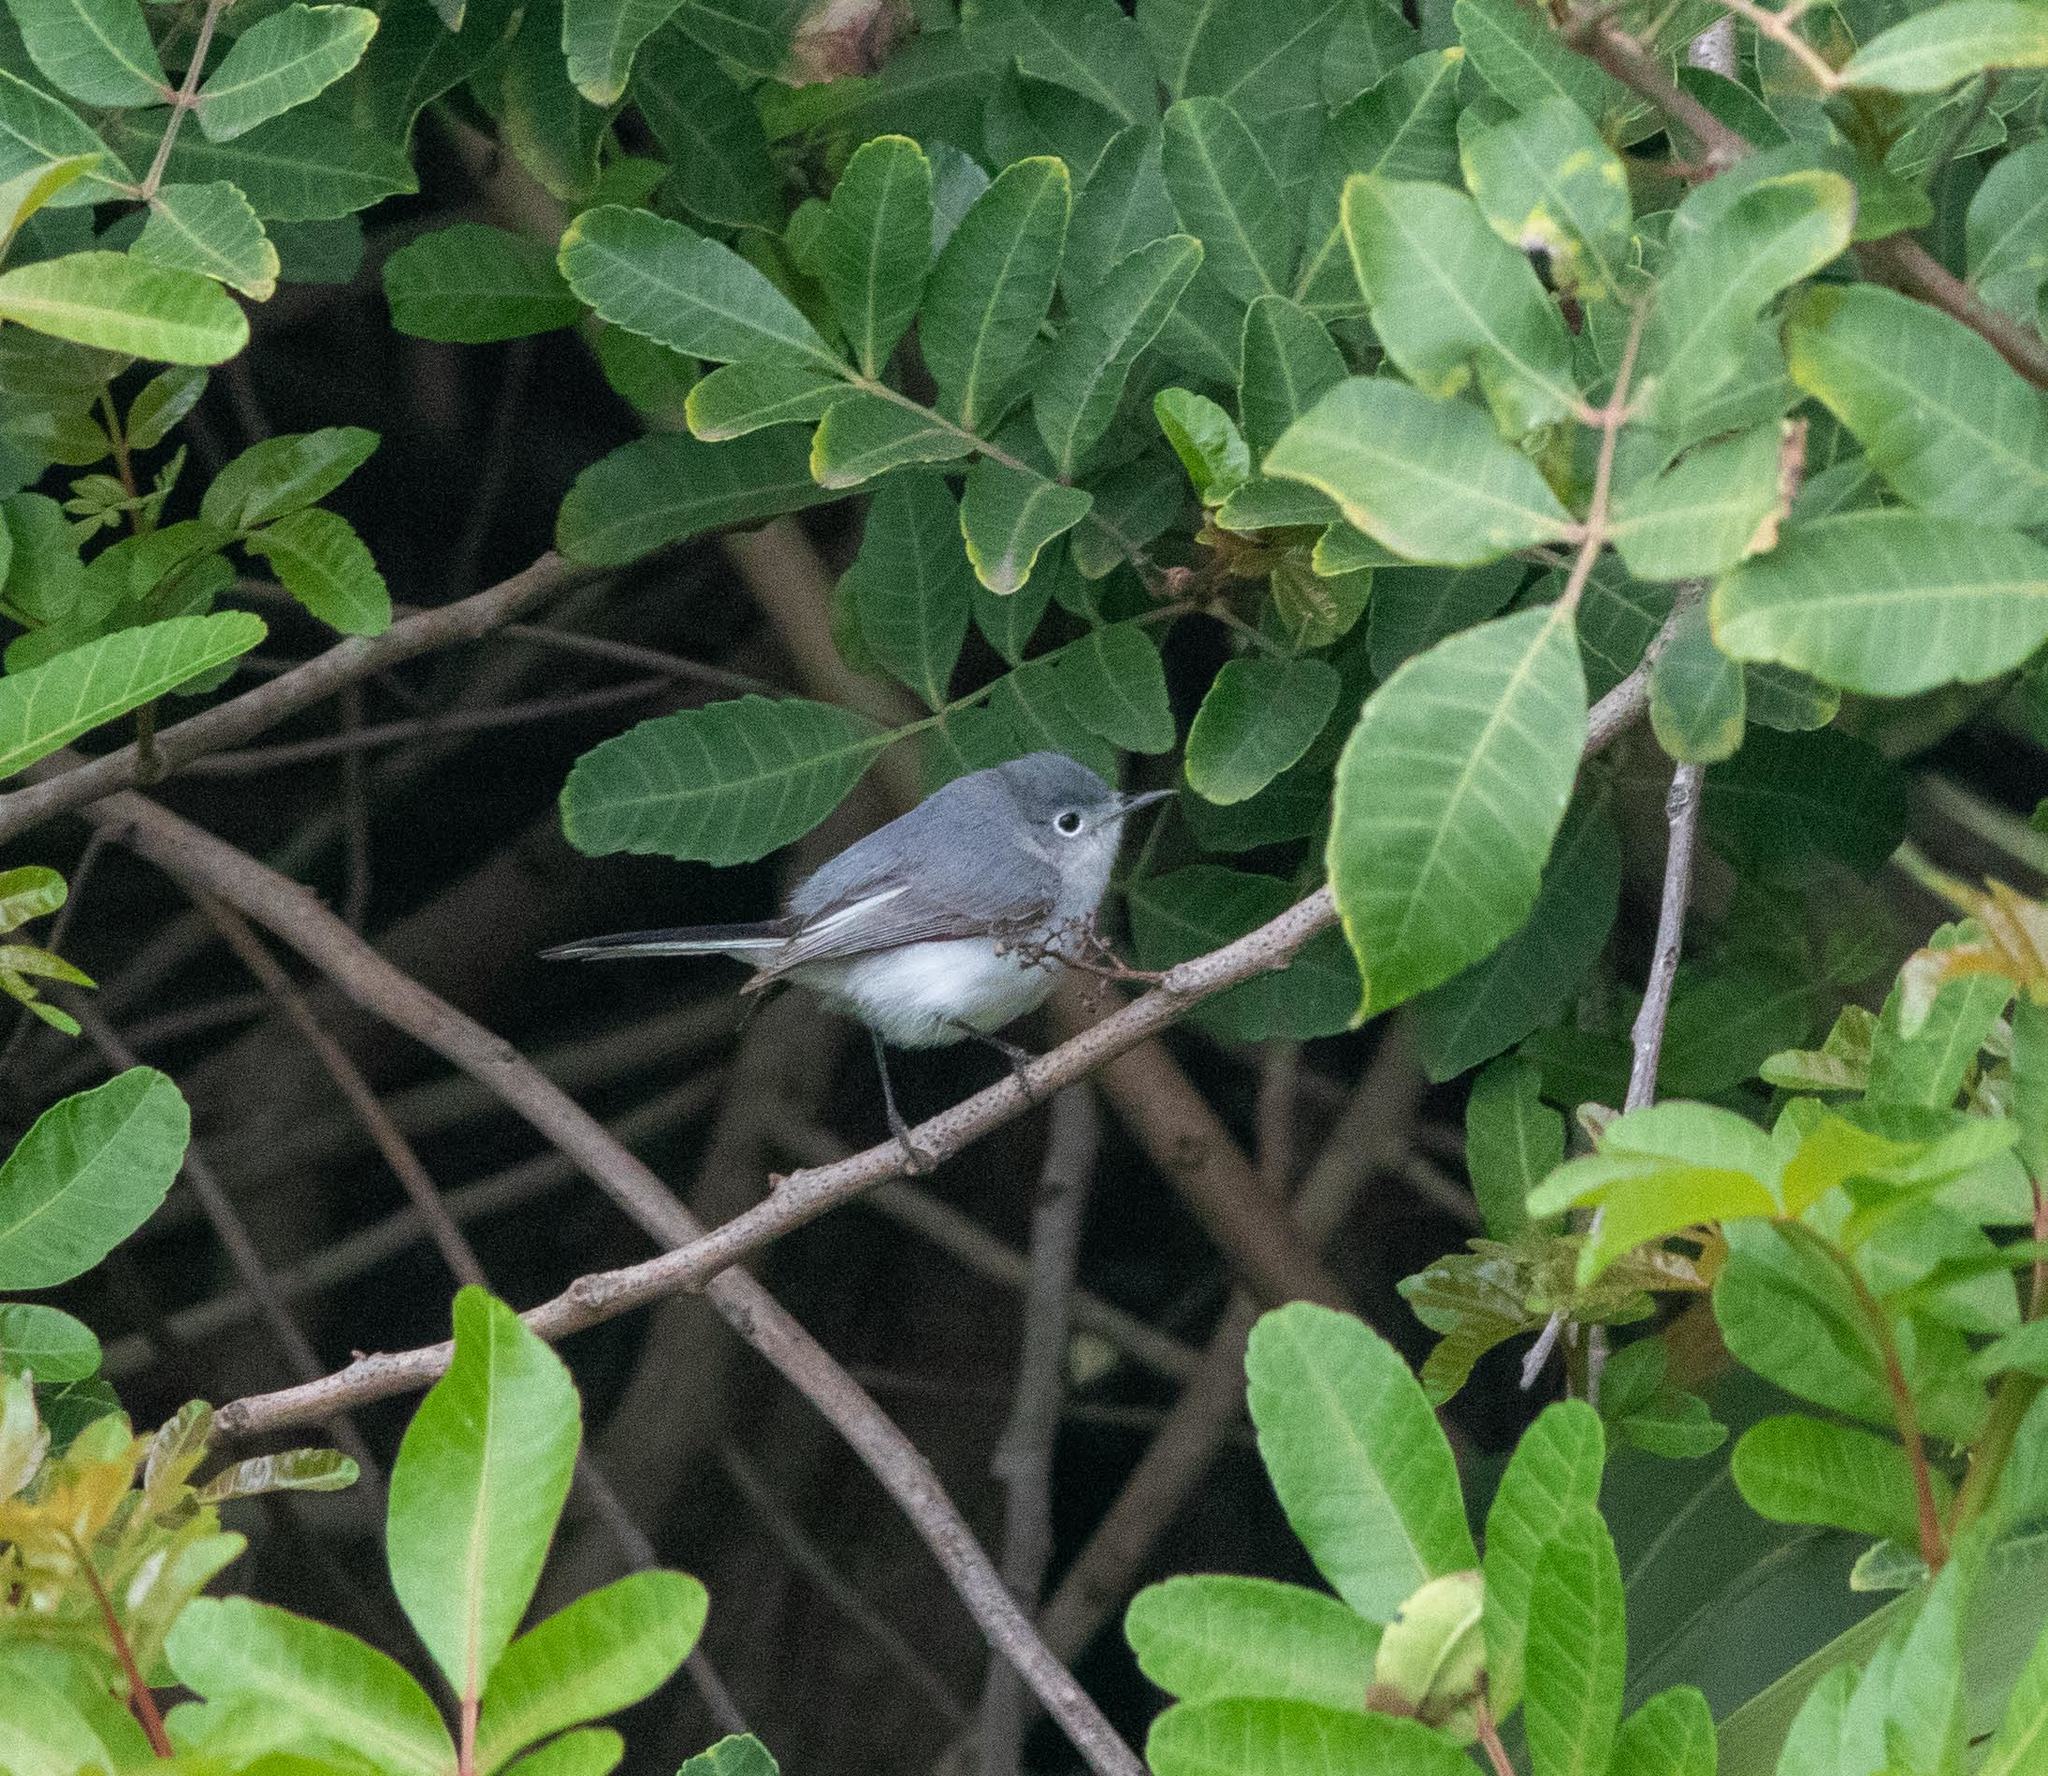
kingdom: Animalia
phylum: Chordata
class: Aves
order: Passeriformes
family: Polioptilidae
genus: Polioptila
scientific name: Polioptila caerulea
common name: Blue-gray gnatcatcher
